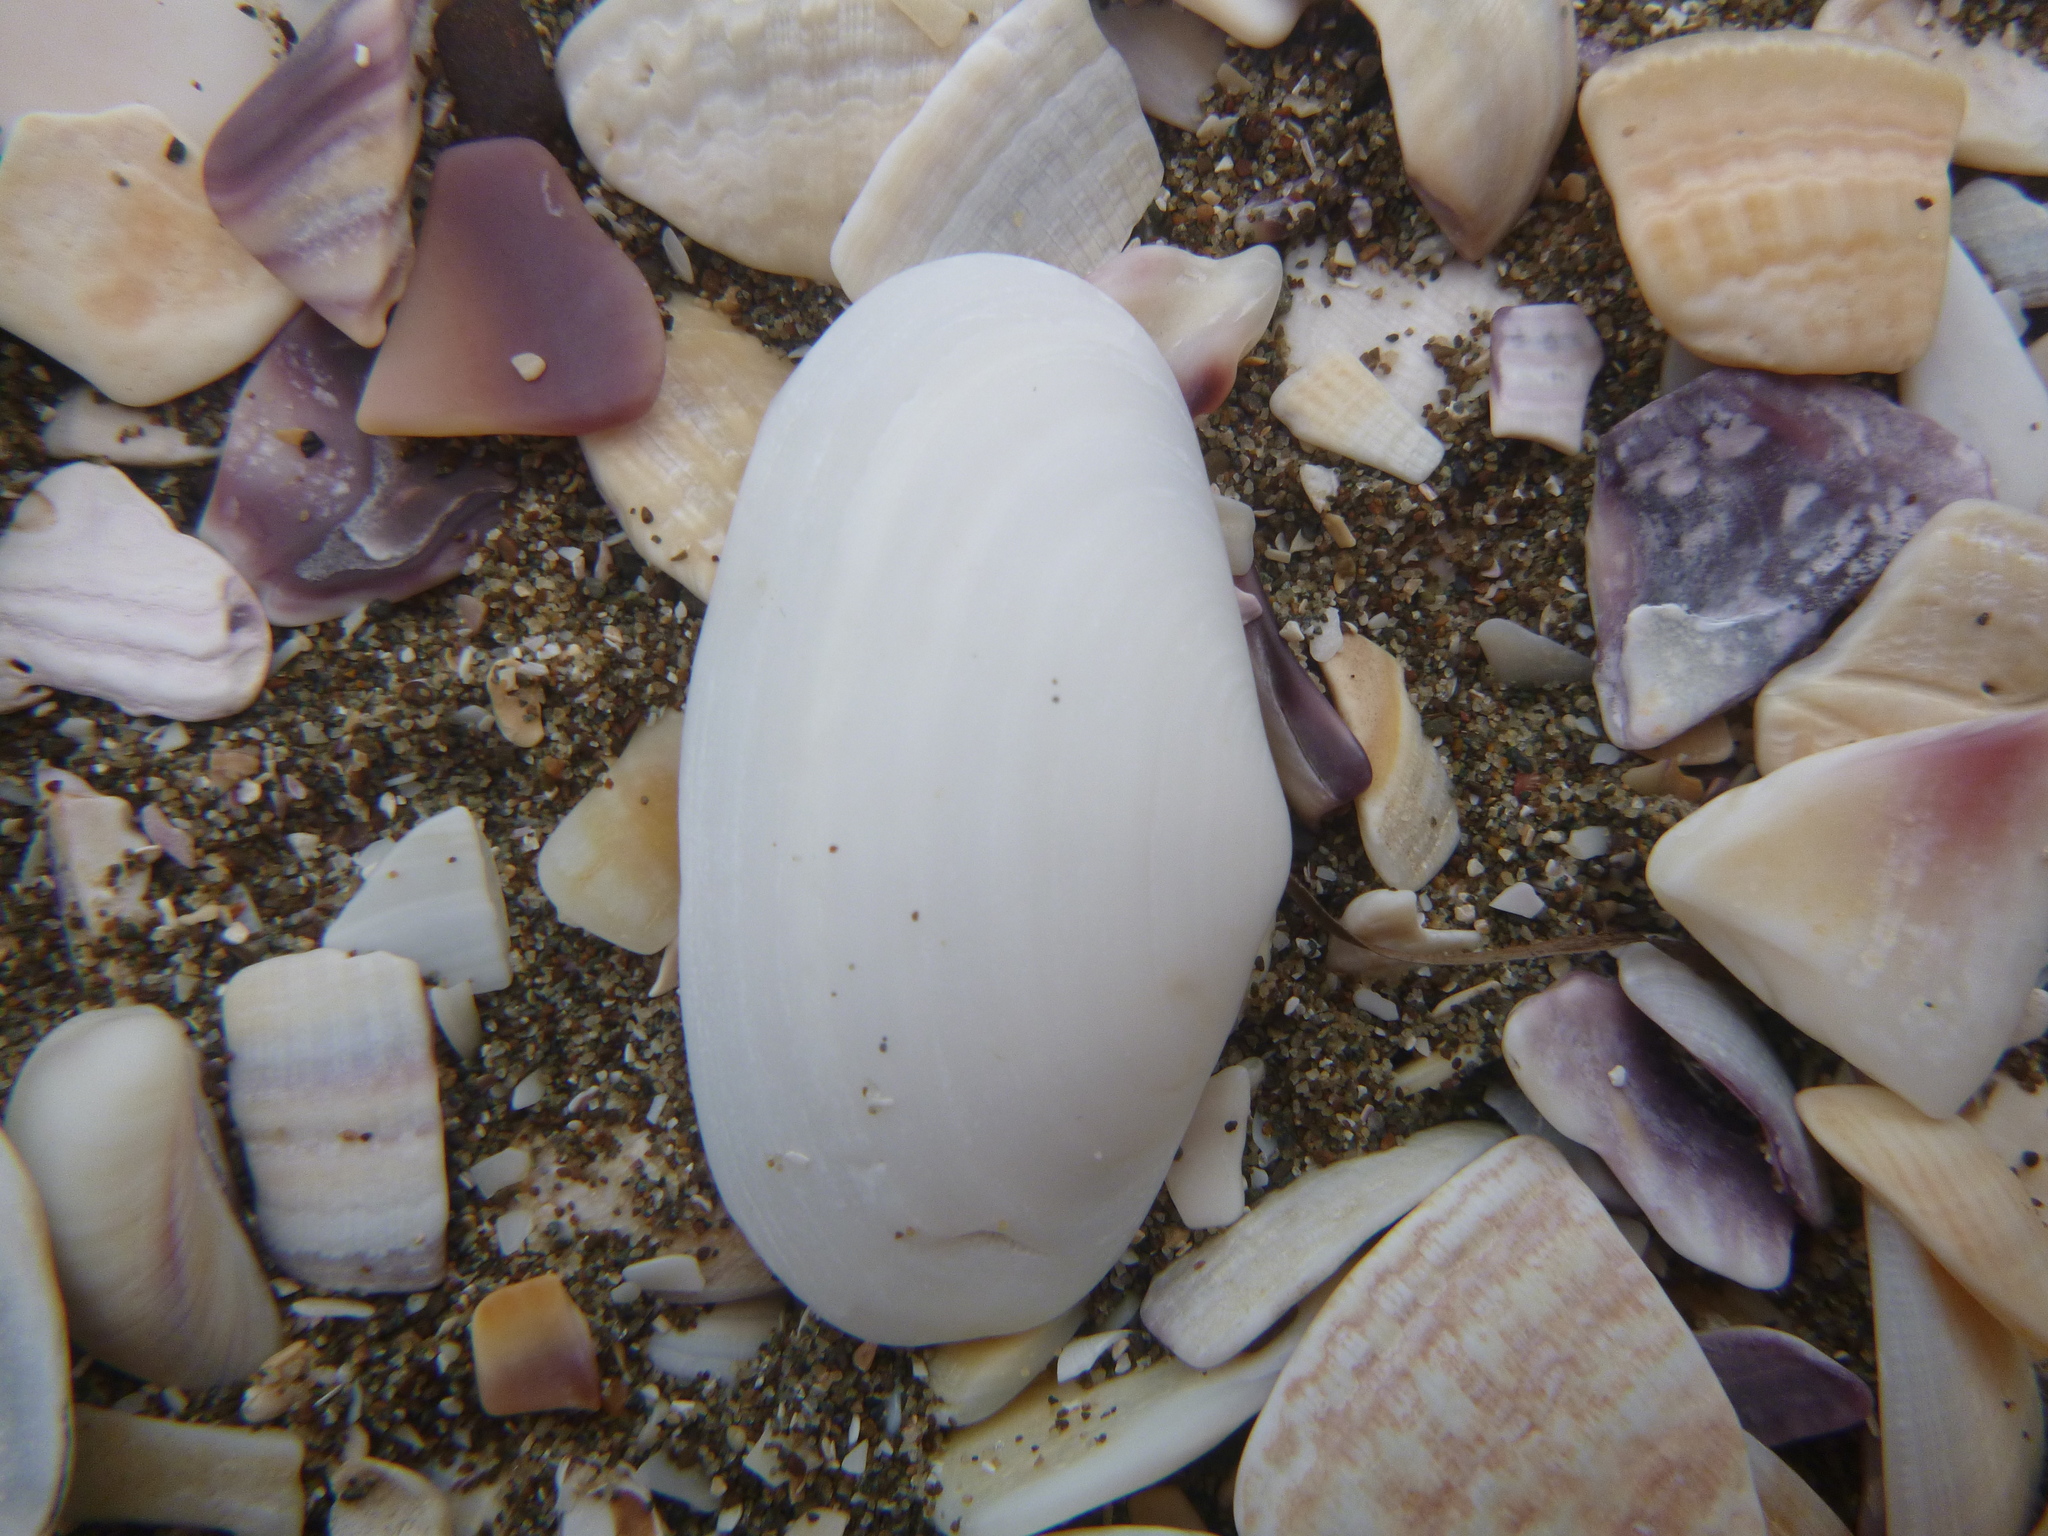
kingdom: Animalia
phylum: Mollusca
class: Bivalvia
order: Venerida
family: Mesodesmatidae
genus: Paphies
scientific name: Paphies australis
